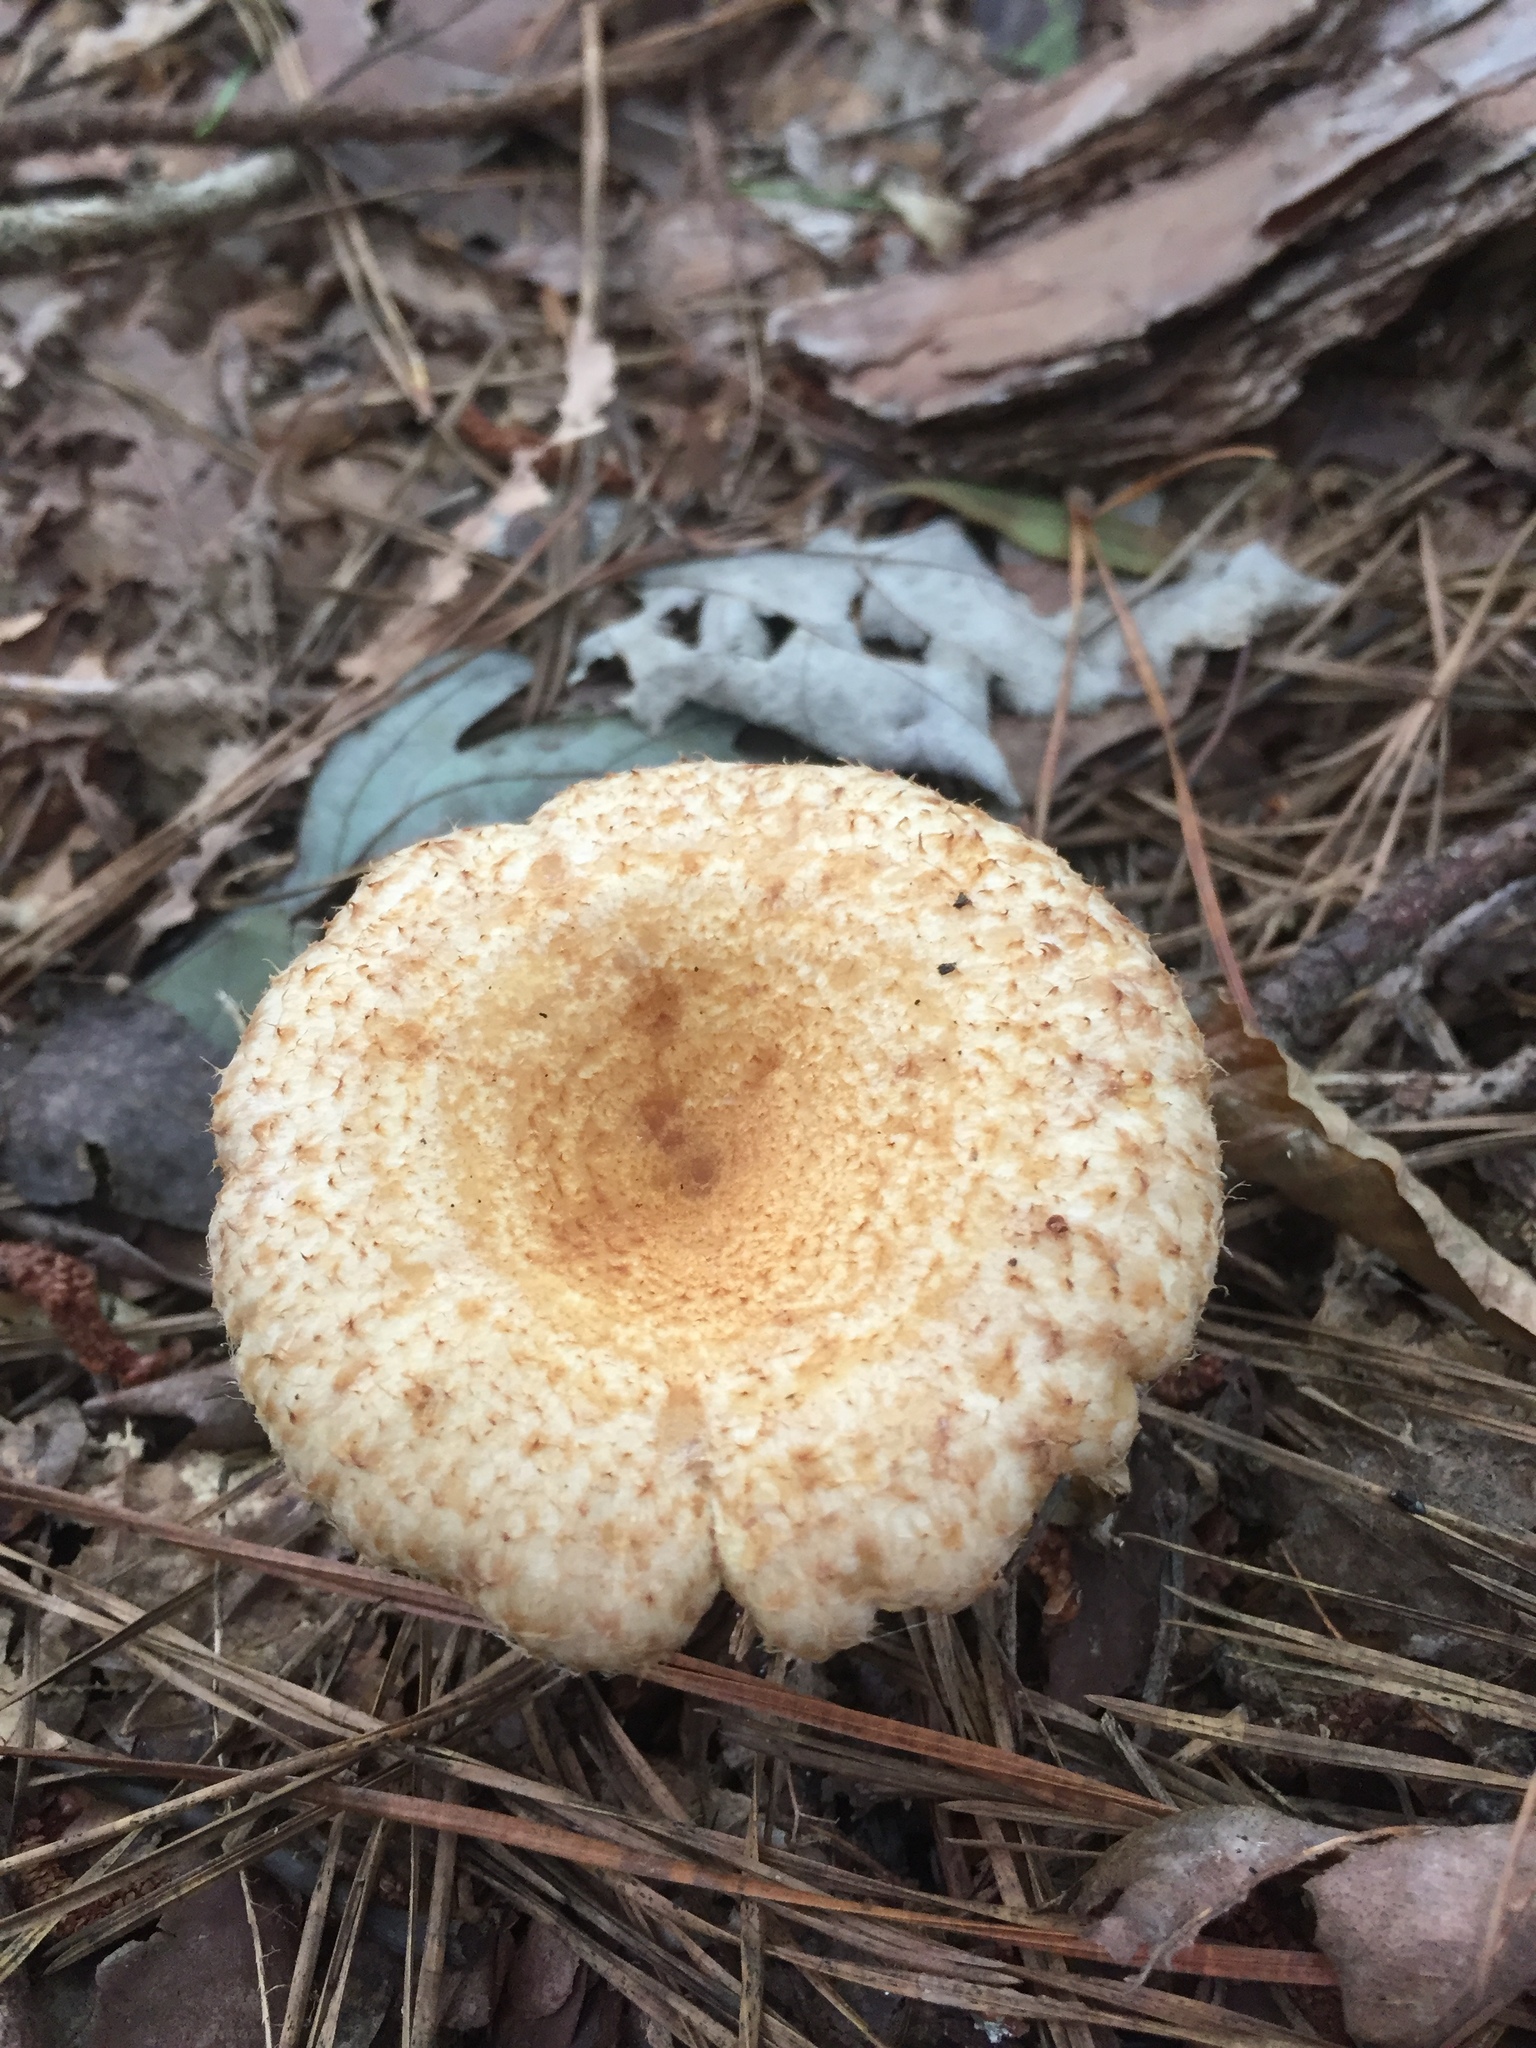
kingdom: Fungi
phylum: Basidiomycota
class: Agaricomycetes
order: Russulales
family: Russulaceae
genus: Lactarius
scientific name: Lactarius torminosus
